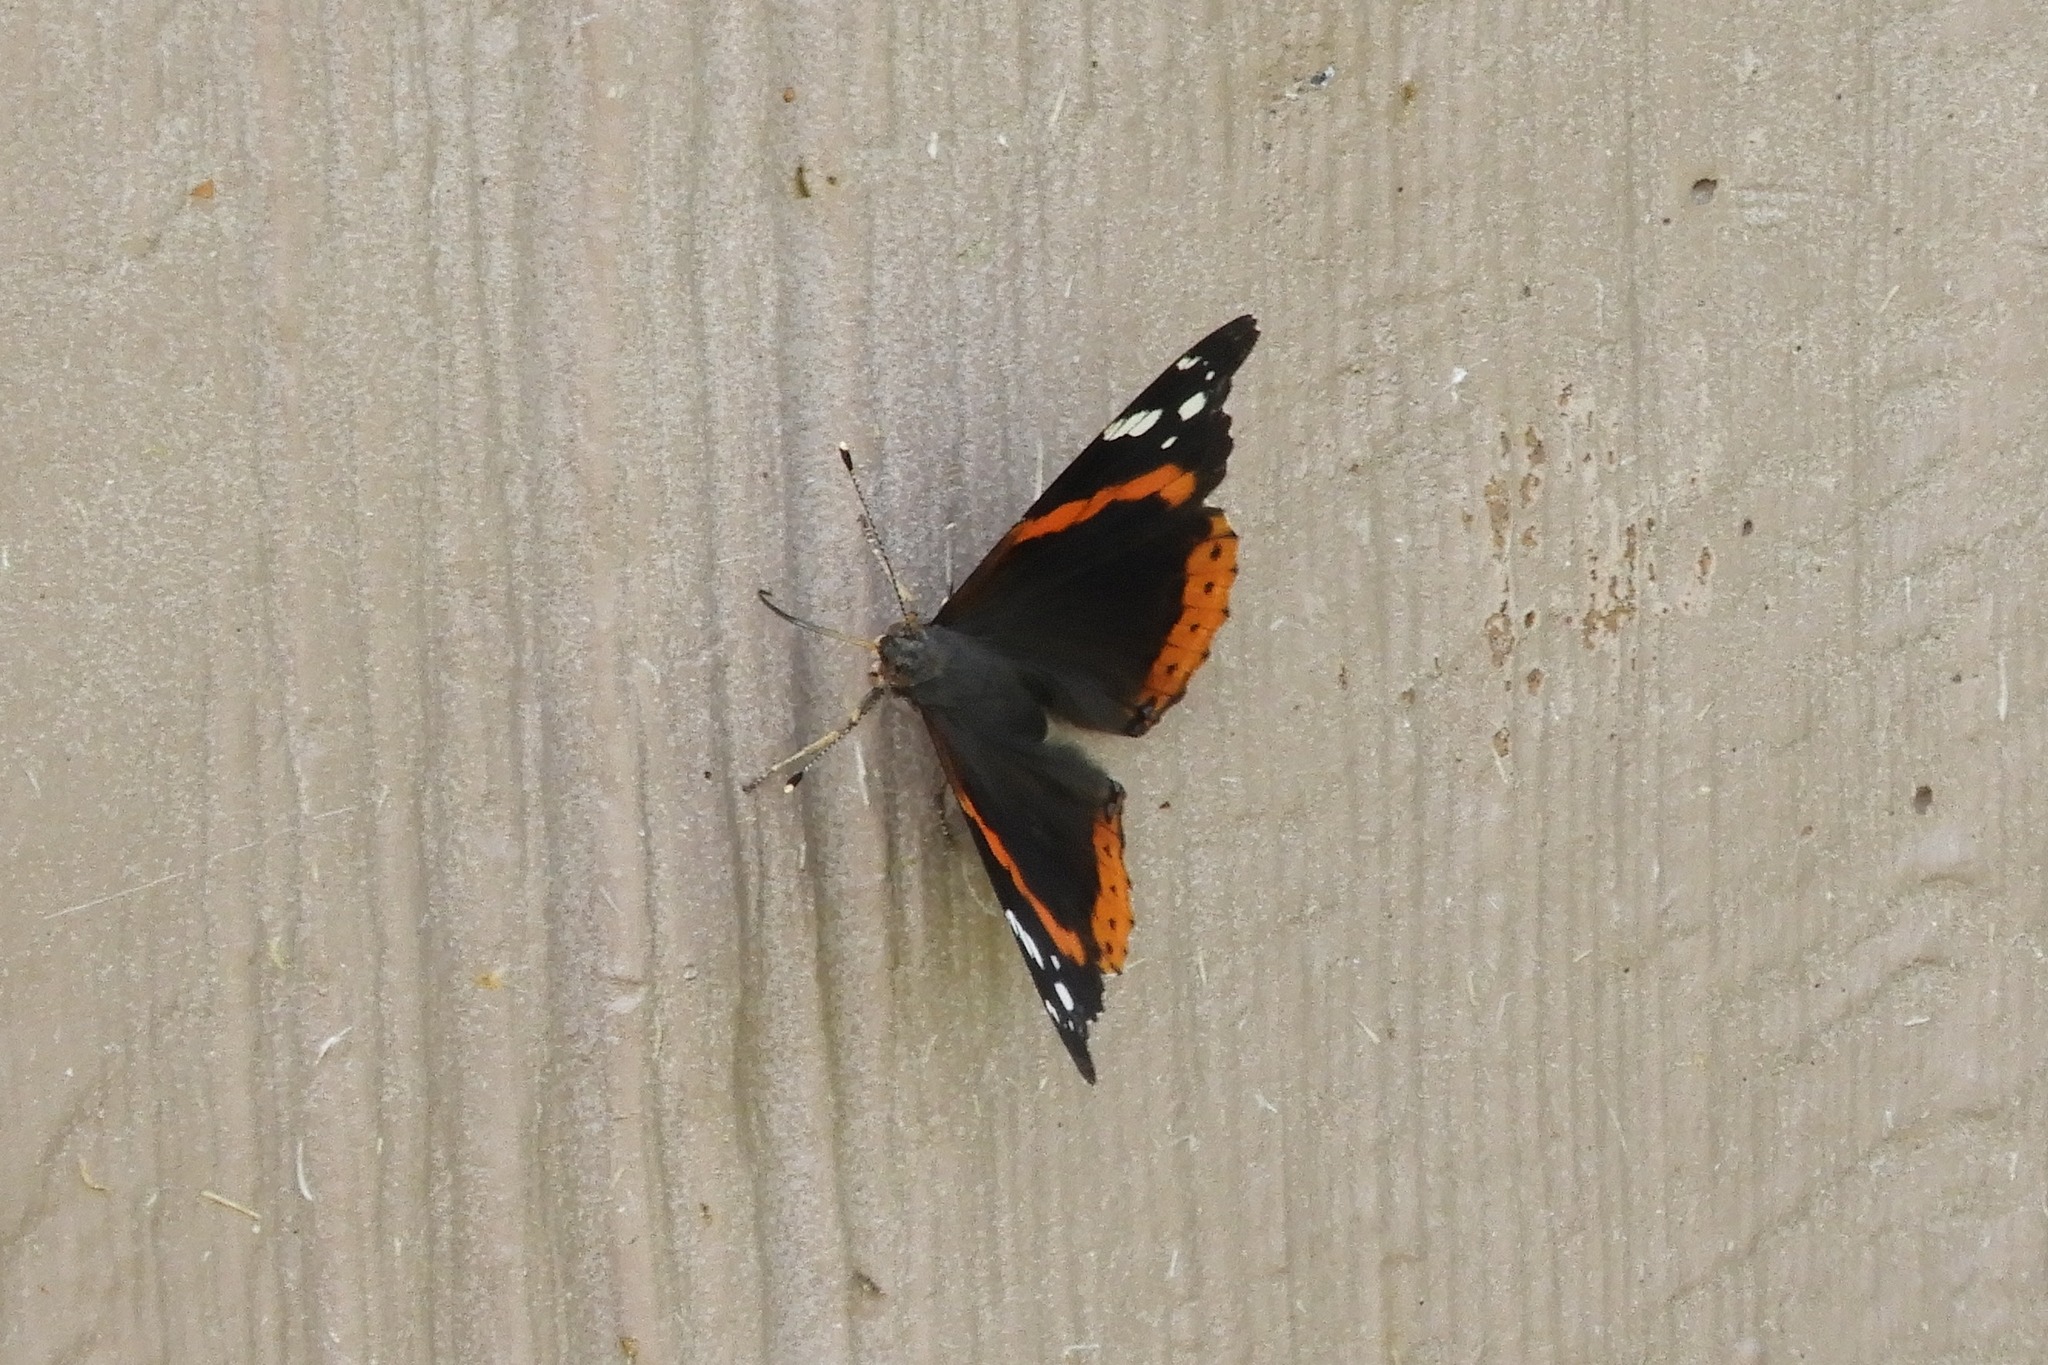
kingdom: Animalia
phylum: Arthropoda
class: Insecta
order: Lepidoptera
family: Nymphalidae
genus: Vanessa
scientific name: Vanessa atalanta
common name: Red admiral
